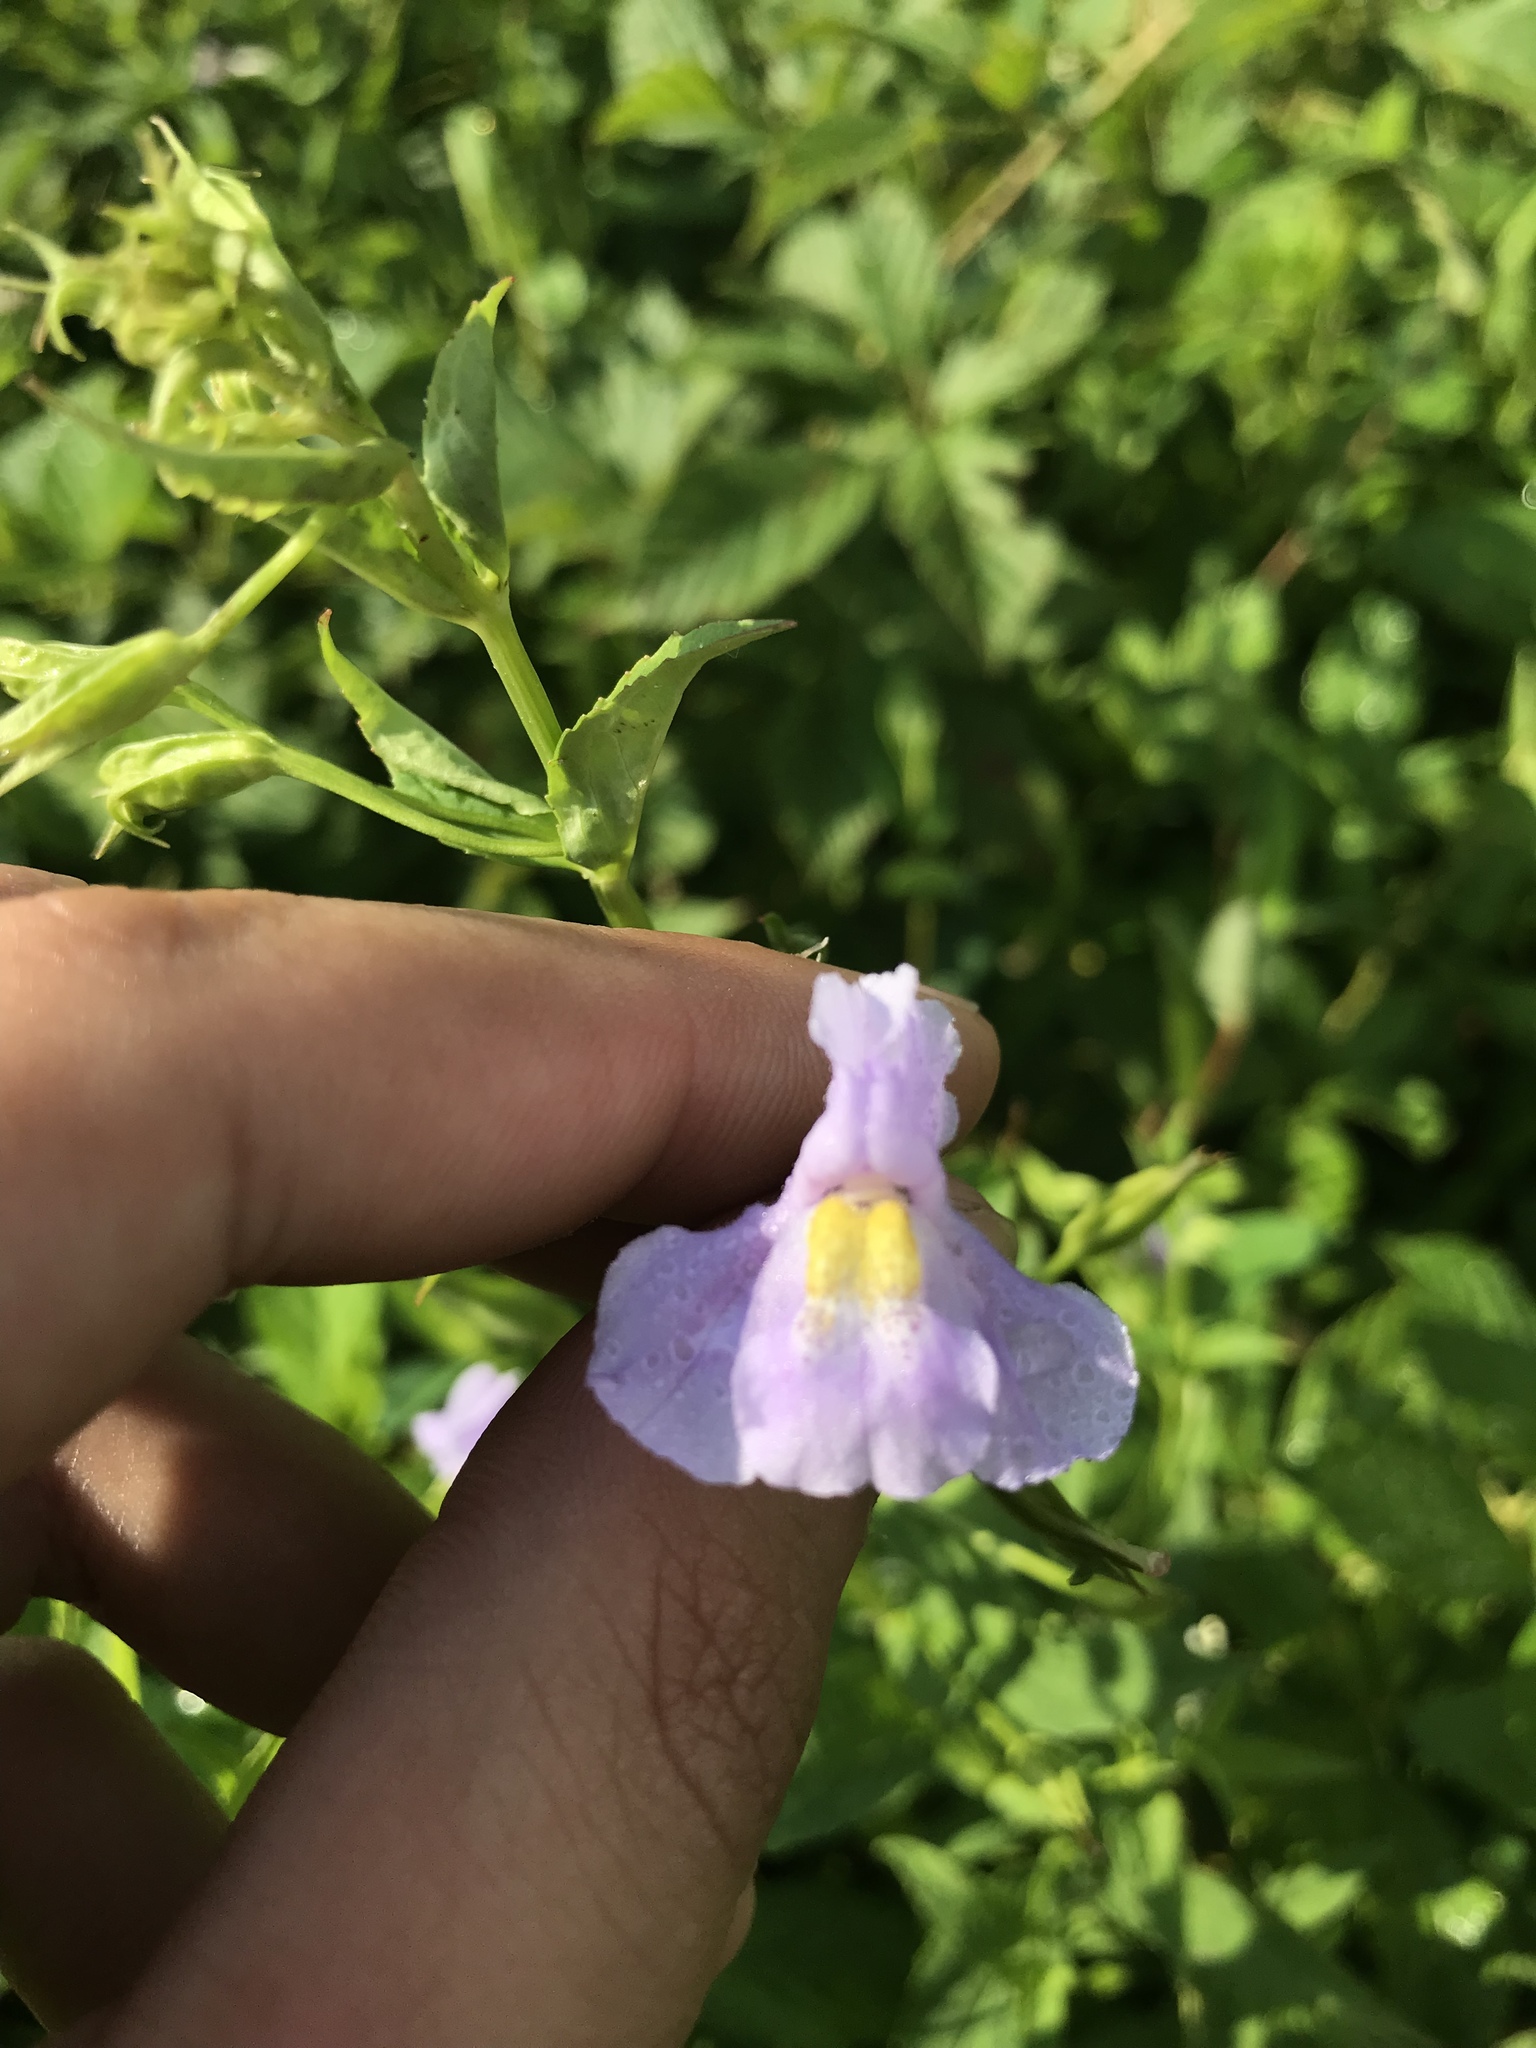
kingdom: Plantae
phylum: Tracheophyta
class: Magnoliopsida
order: Lamiales
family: Phrymaceae
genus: Mimulus
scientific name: Mimulus ringens
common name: Allegheny monkeyflower
